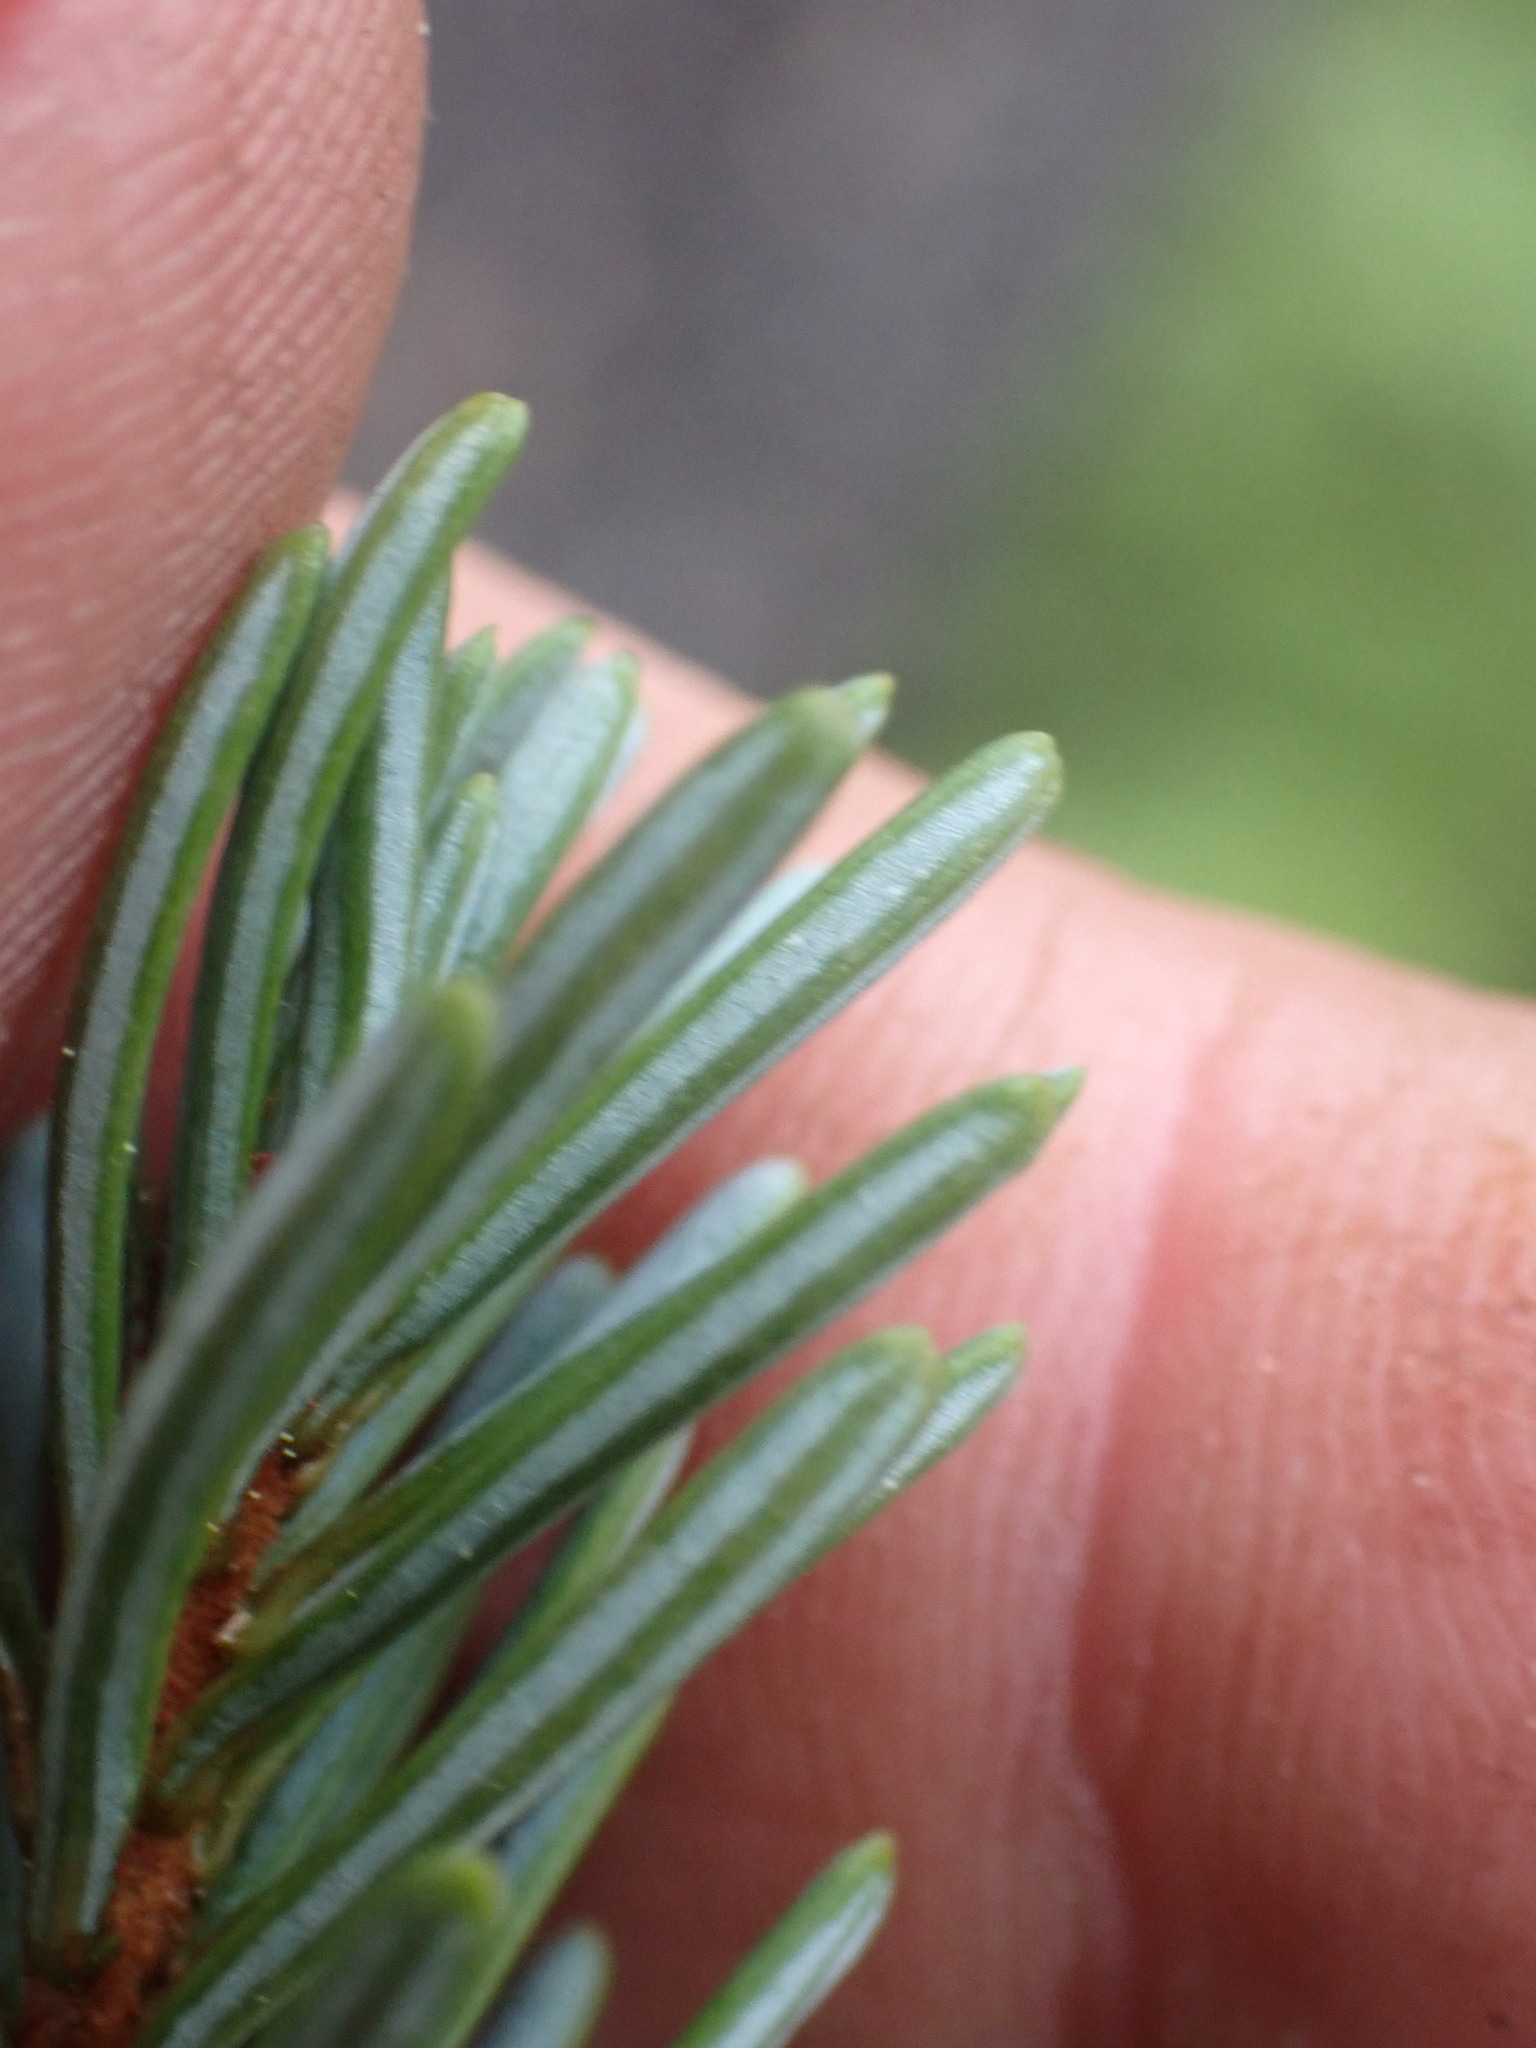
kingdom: Plantae
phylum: Tracheophyta
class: Pinopsida
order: Pinales
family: Pinaceae
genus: Abies
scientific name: Abies lasiocarpa
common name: Subalpine fir
